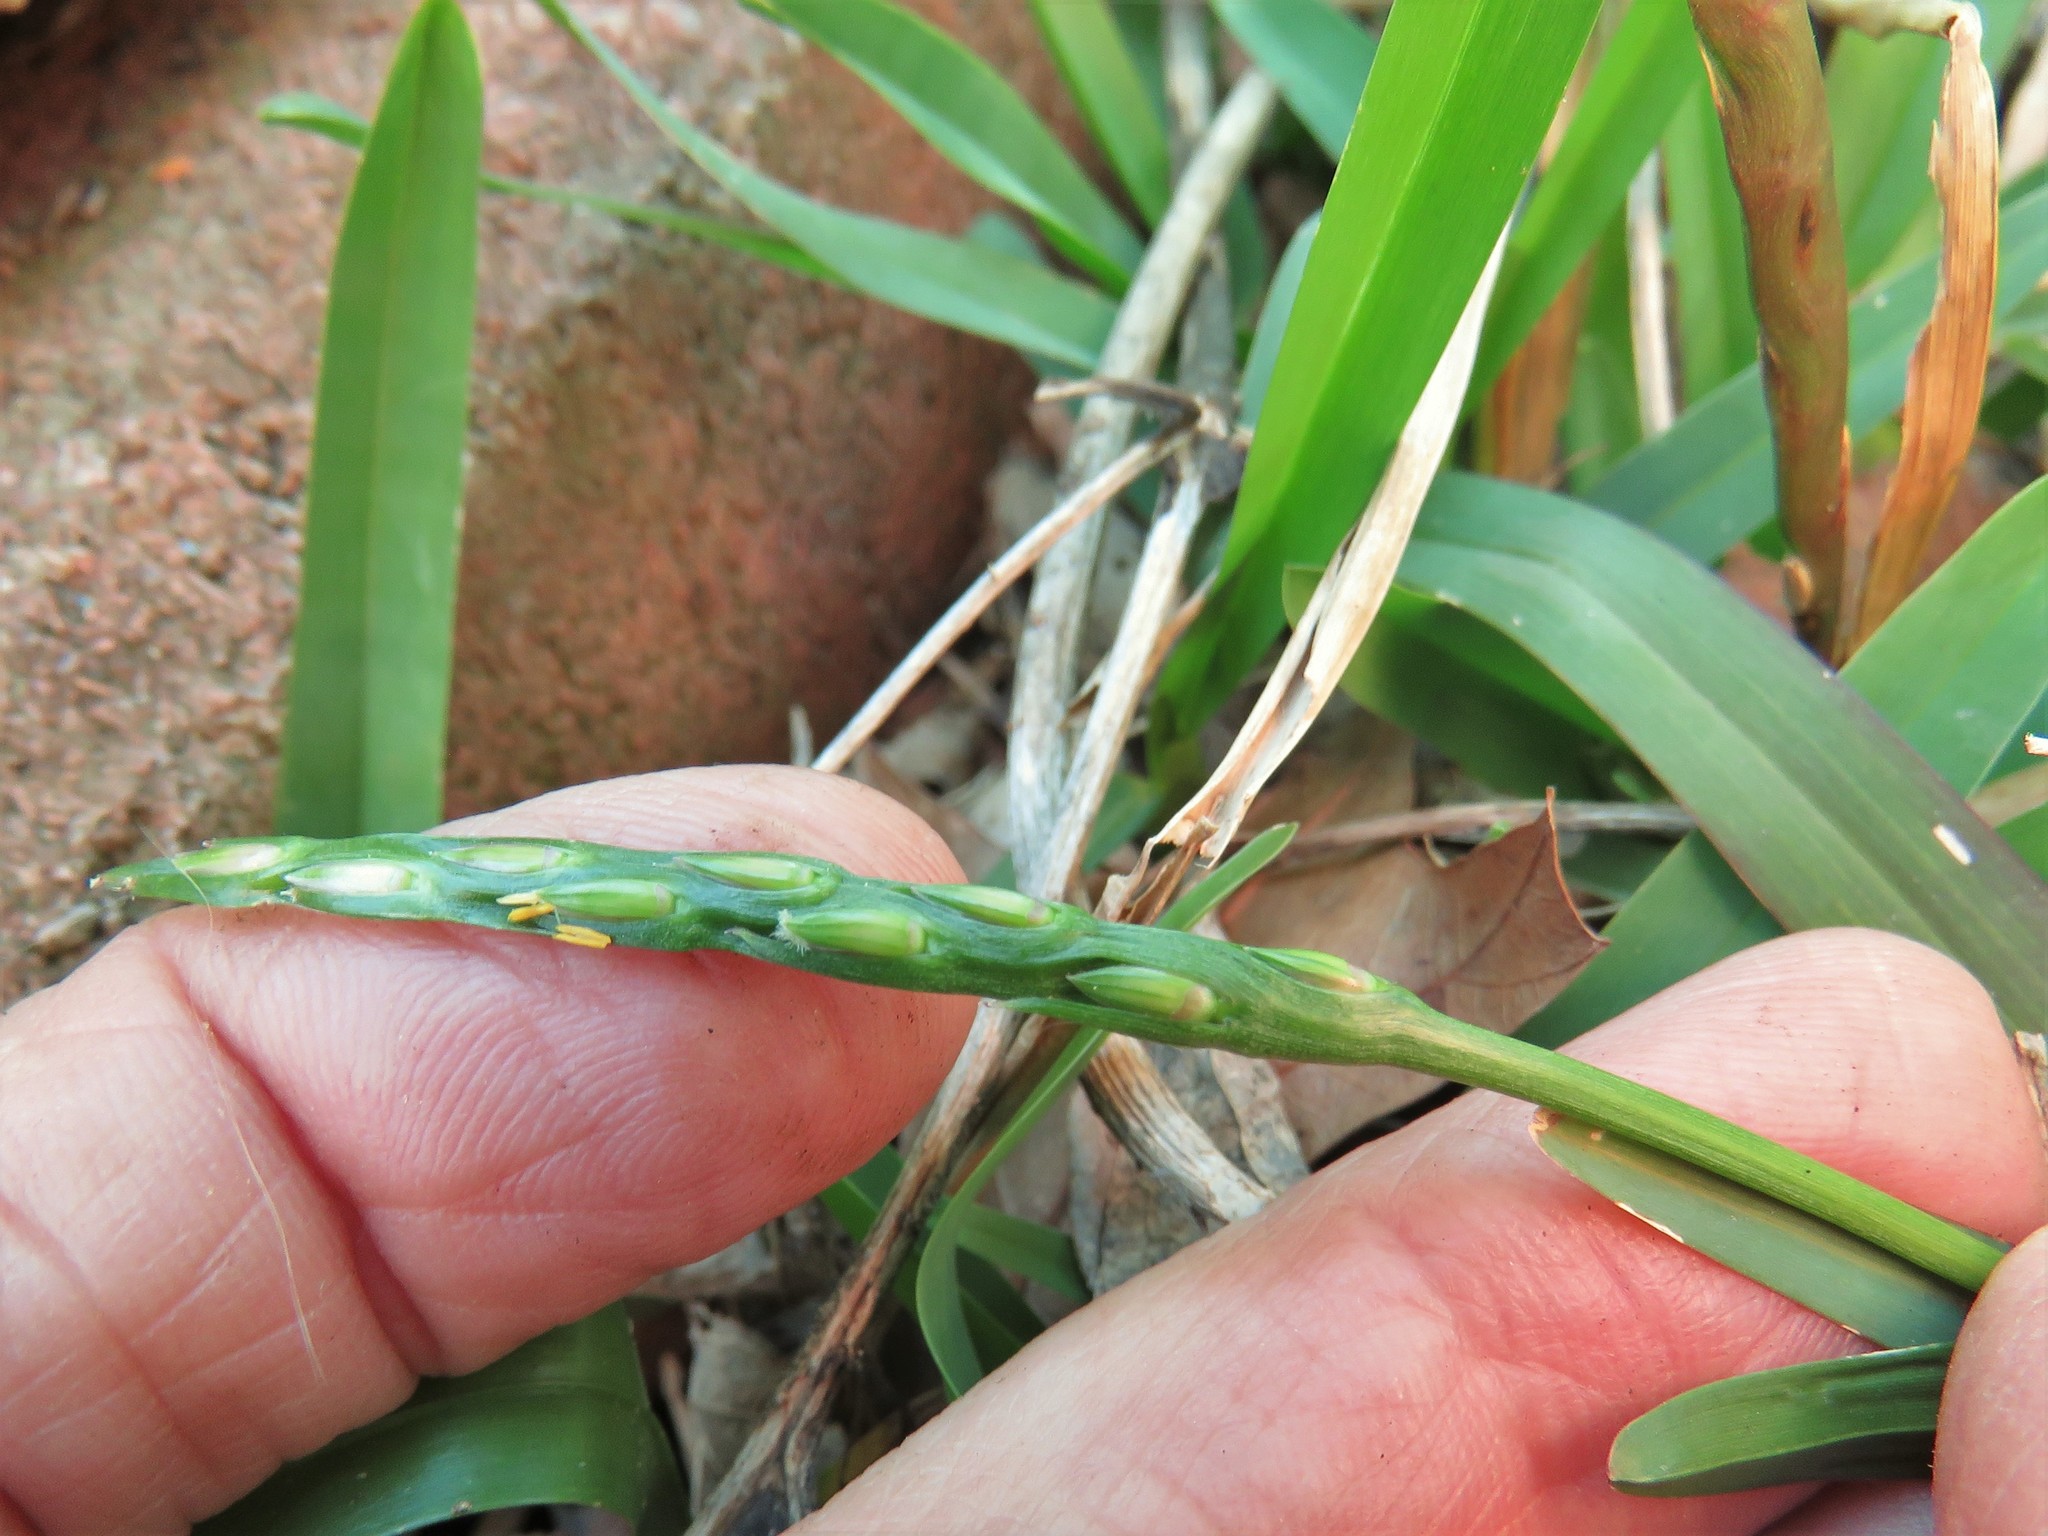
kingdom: Plantae
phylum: Tracheophyta
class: Liliopsida
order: Poales
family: Poaceae
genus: Stenotaphrum
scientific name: Stenotaphrum secundatum
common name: St. augustine grass
